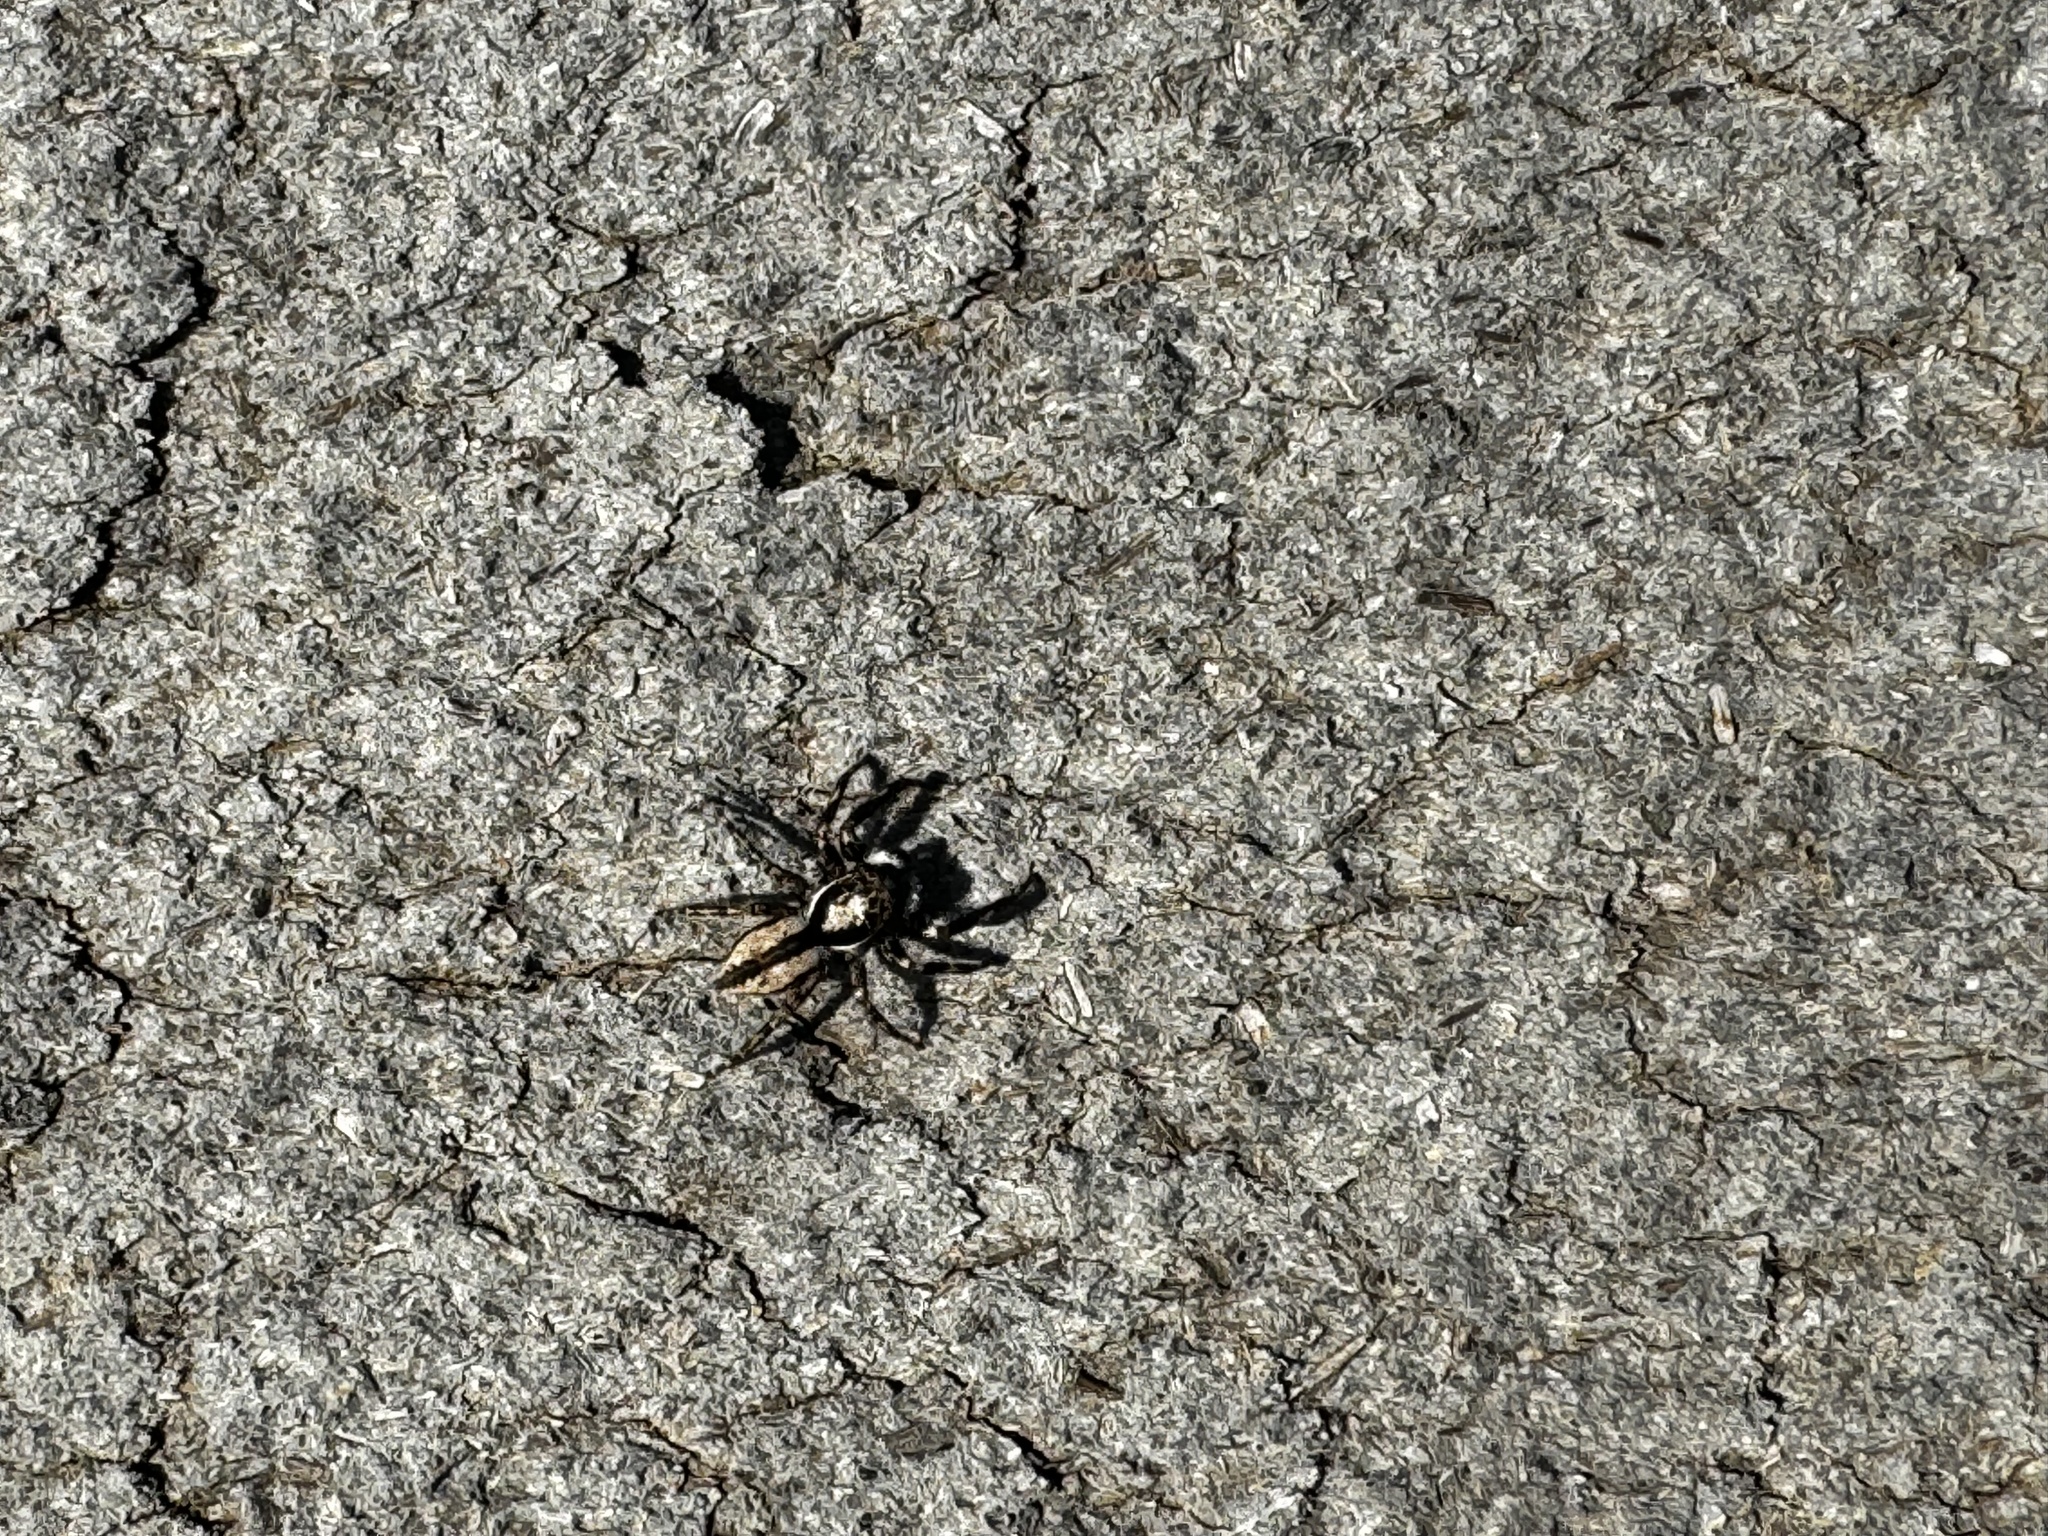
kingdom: Animalia
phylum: Arthropoda
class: Arachnida
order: Araneae
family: Salticidae
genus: Menemerus
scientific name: Menemerus bivittatus
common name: Gray wall jumper
